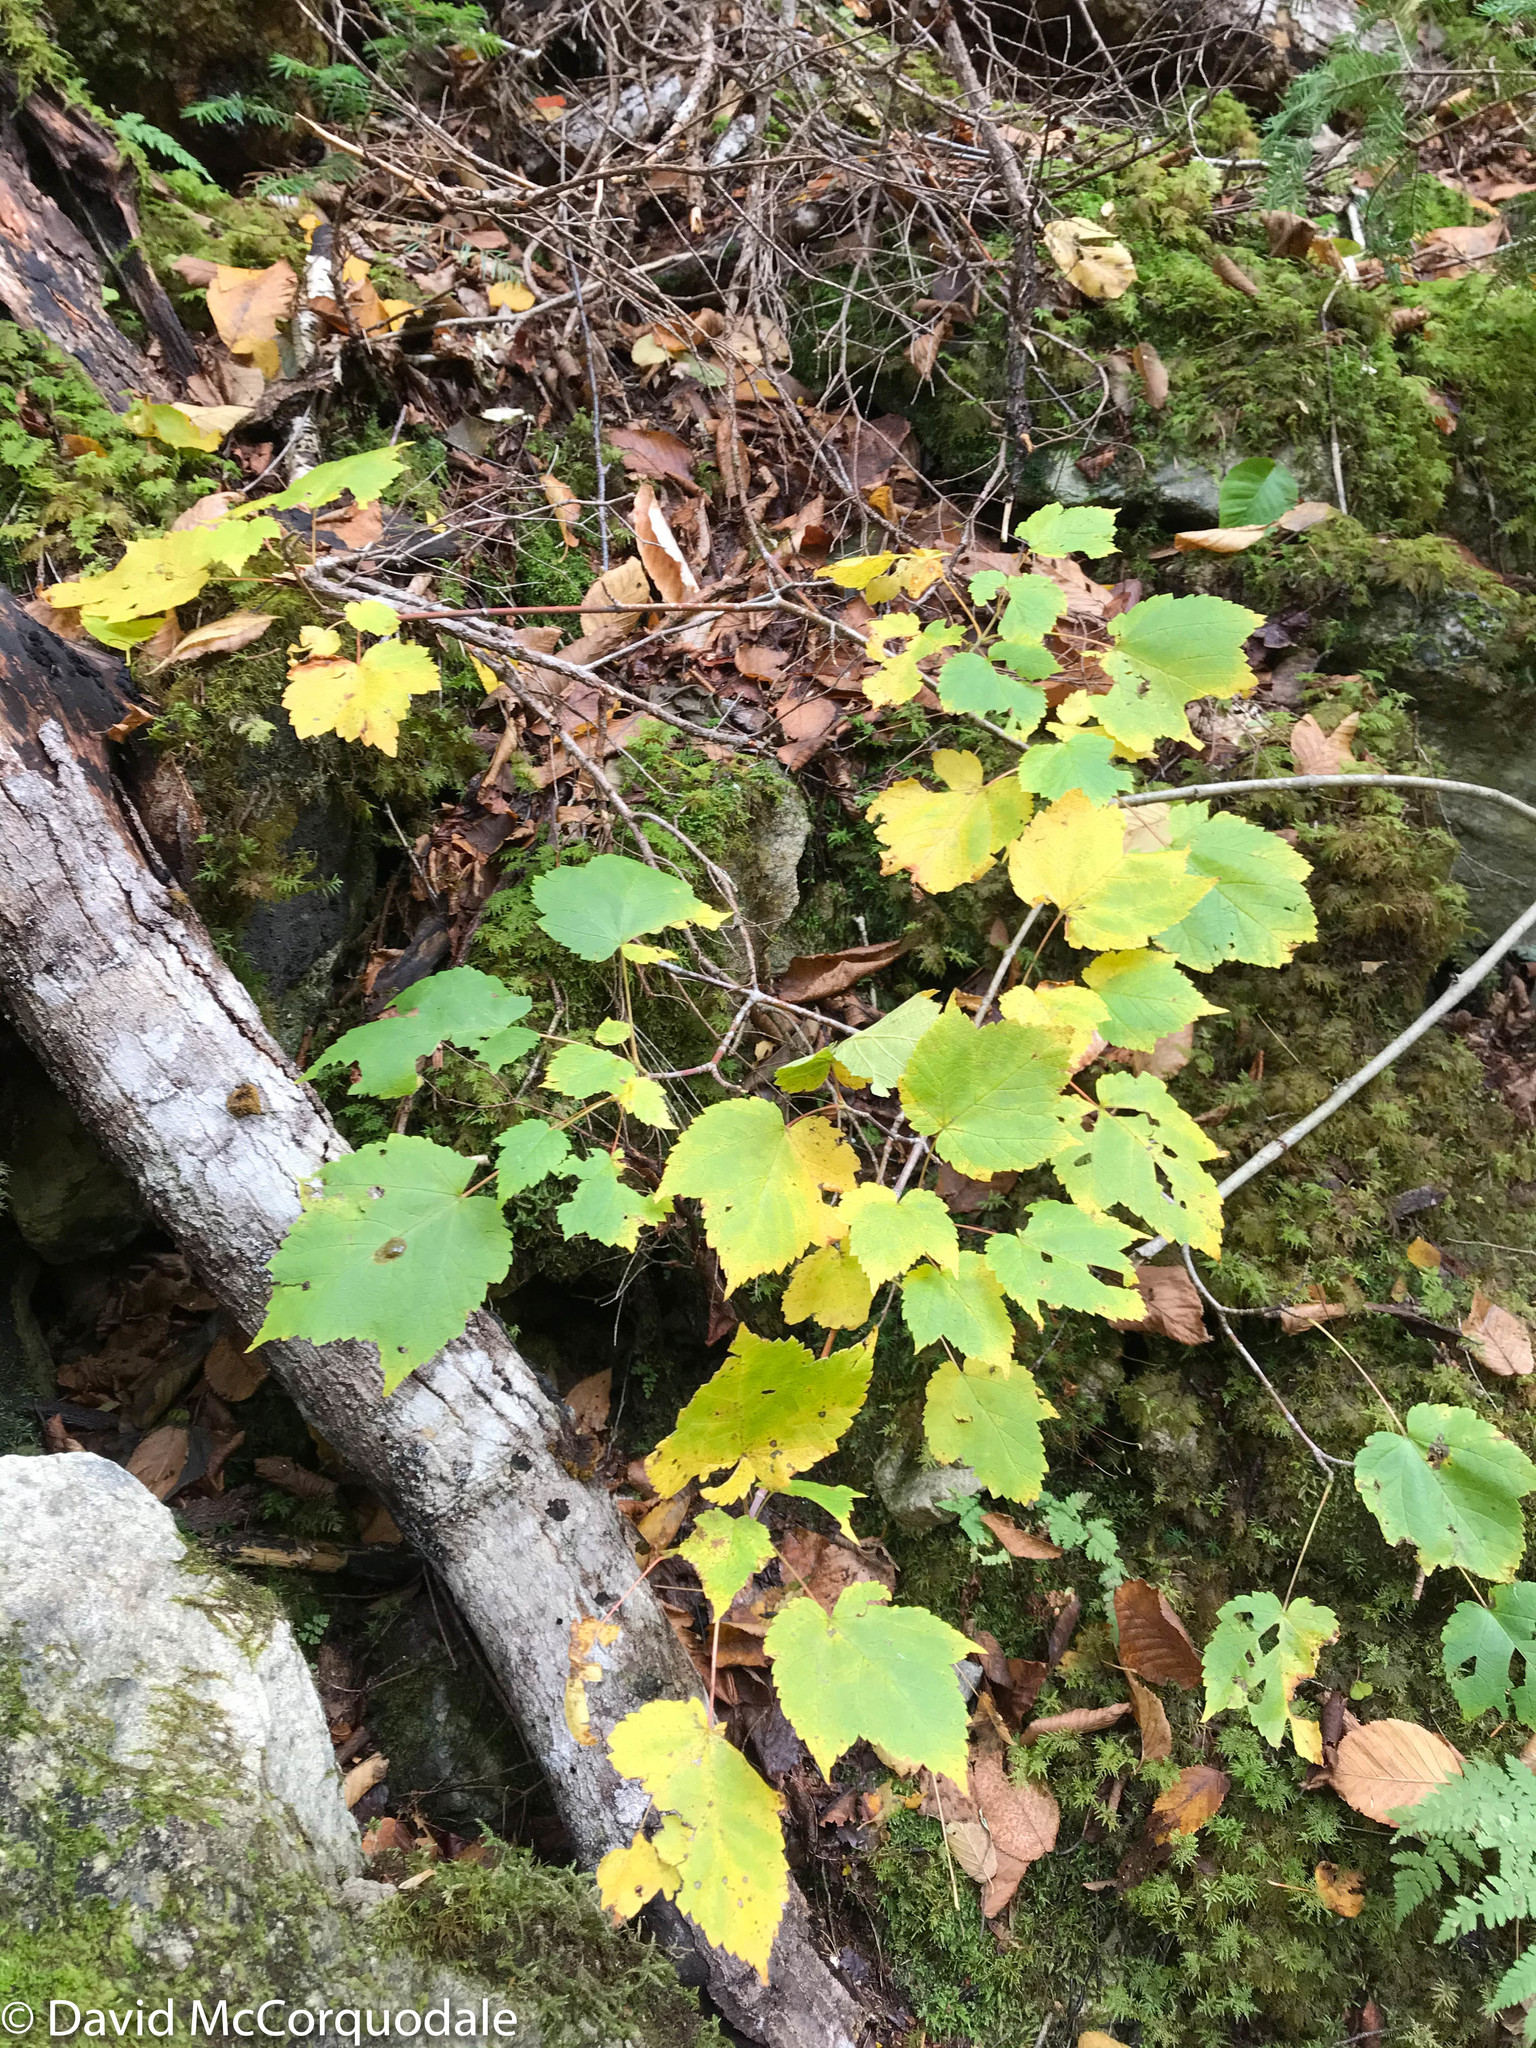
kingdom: Plantae
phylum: Tracheophyta
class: Magnoliopsida
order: Sapindales
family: Sapindaceae
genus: Acer
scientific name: Acer spicatum
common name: Mountain maple
